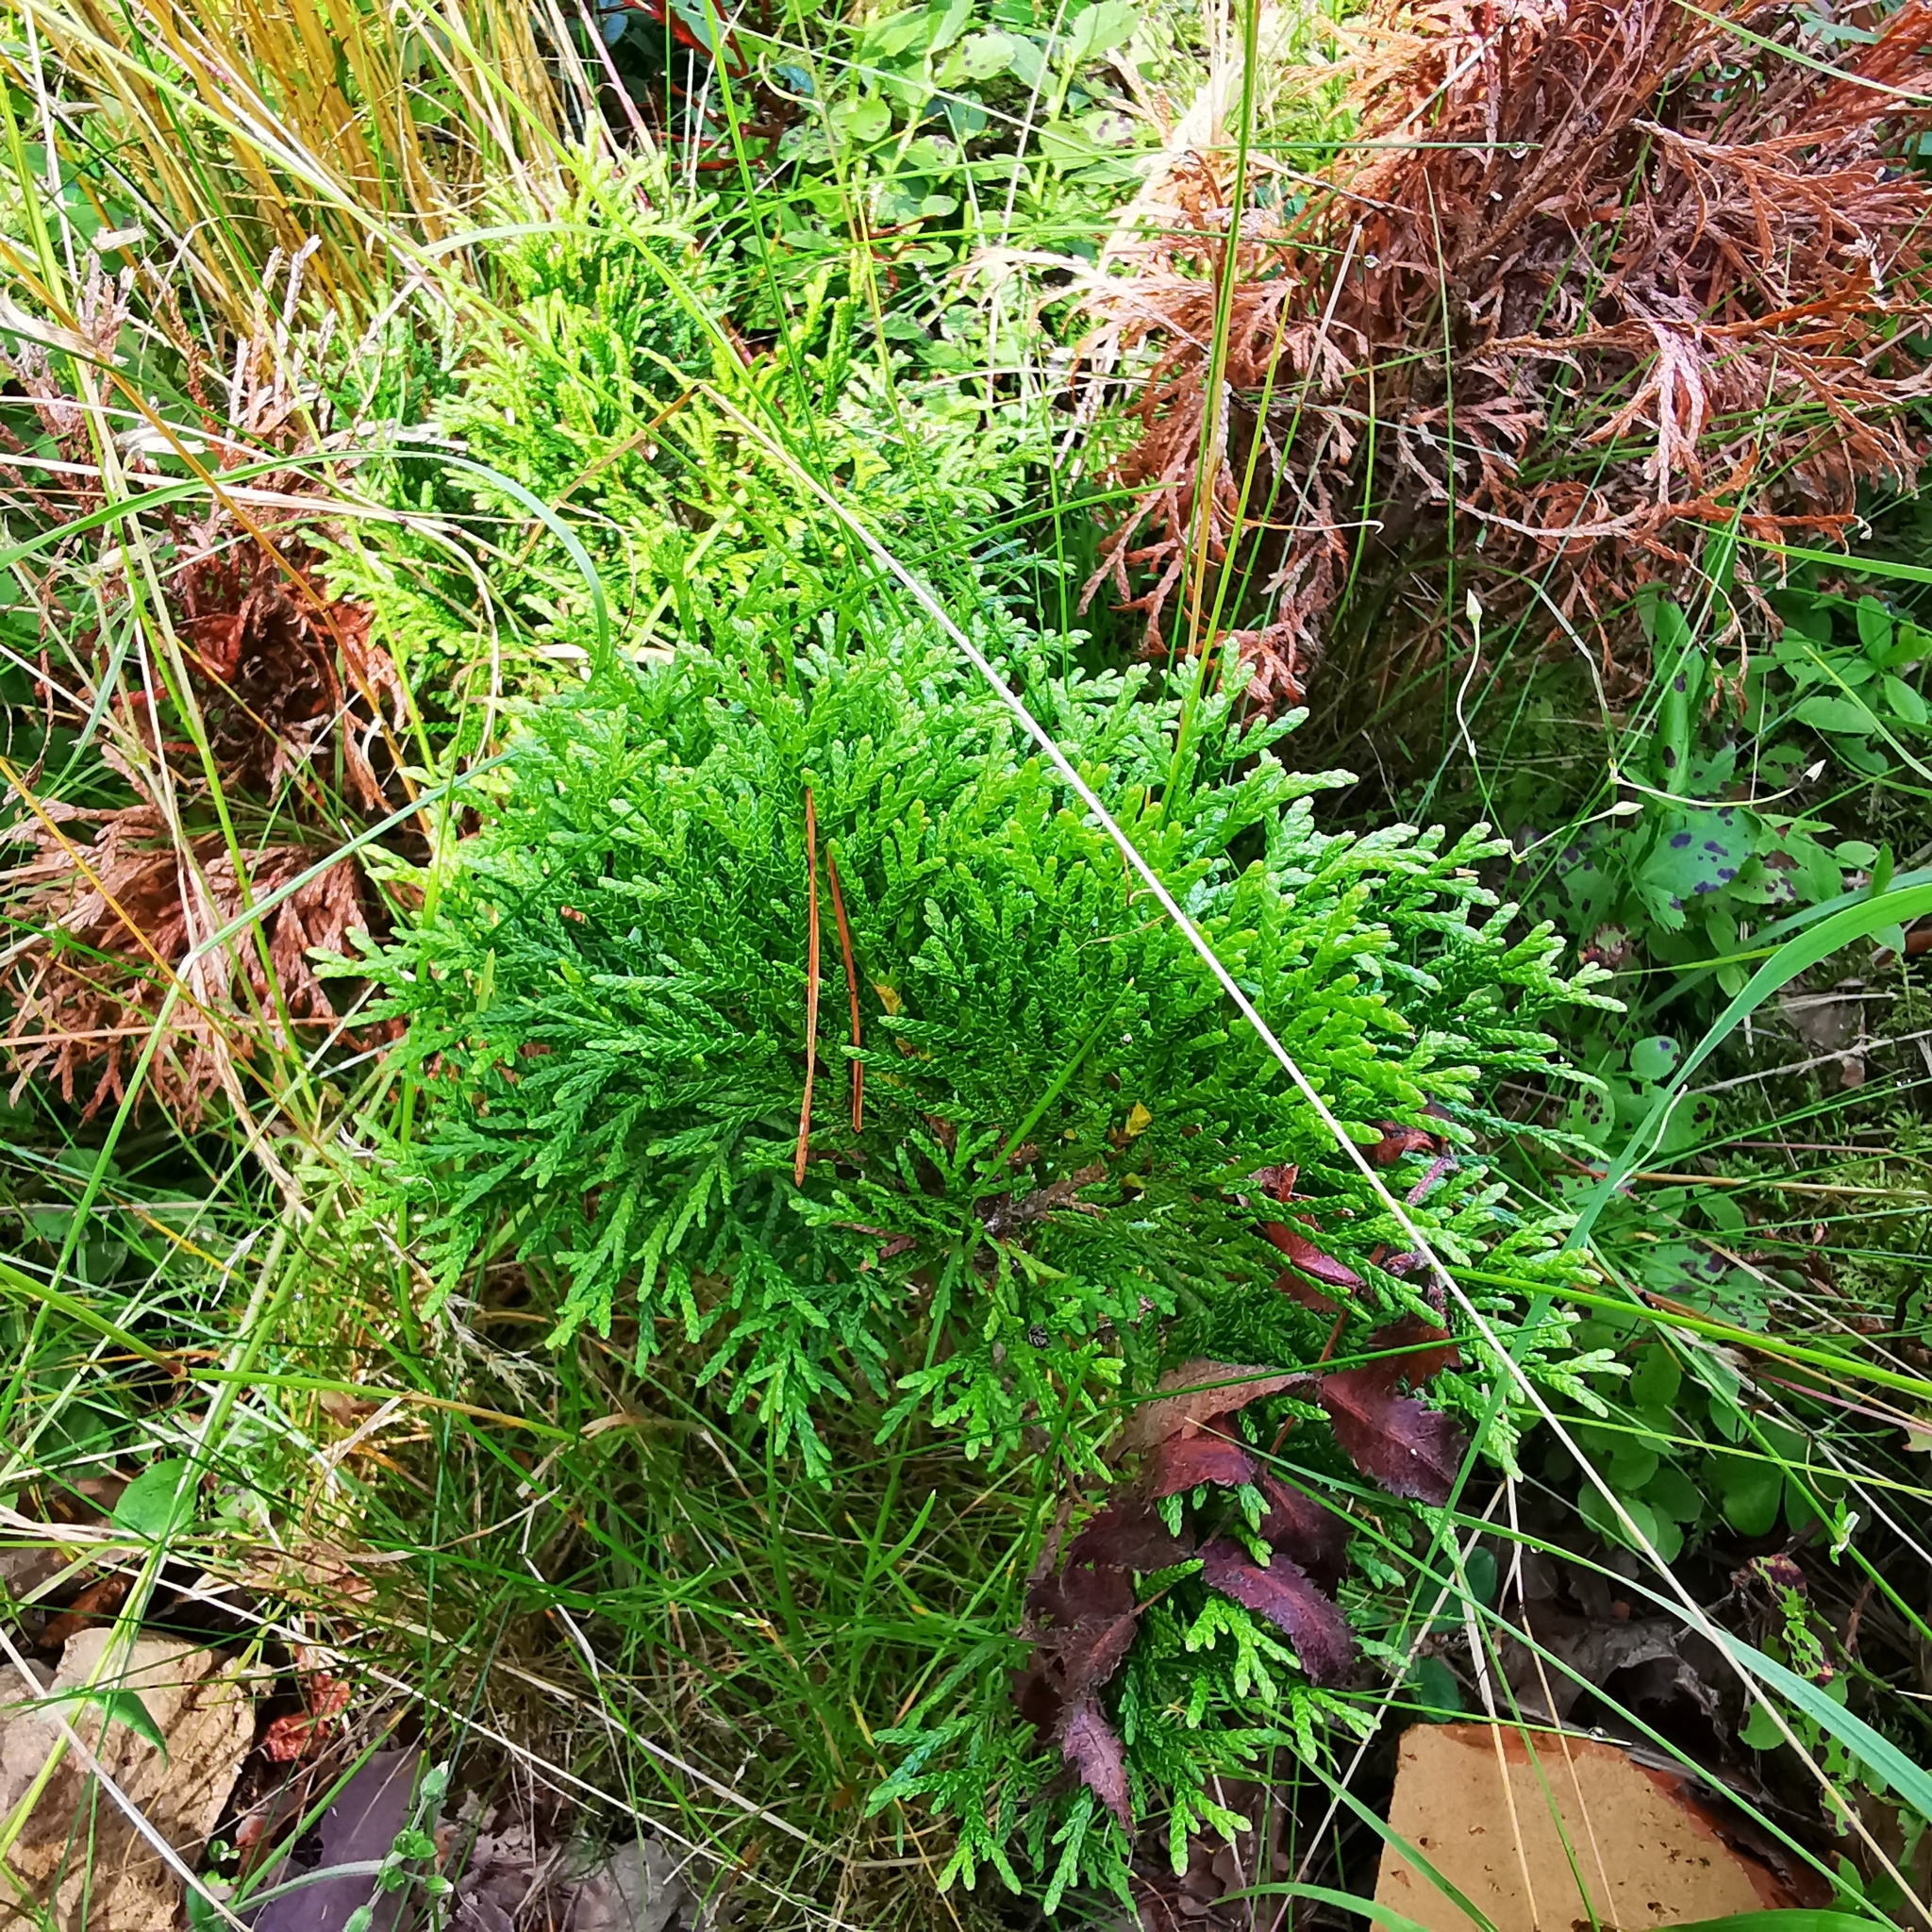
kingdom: Plantae
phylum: Tracheophyta
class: Pinopsida
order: Pinales
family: Cupressaceae
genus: Thuja
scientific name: Thuja occidentalis
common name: Northern white-cedar
